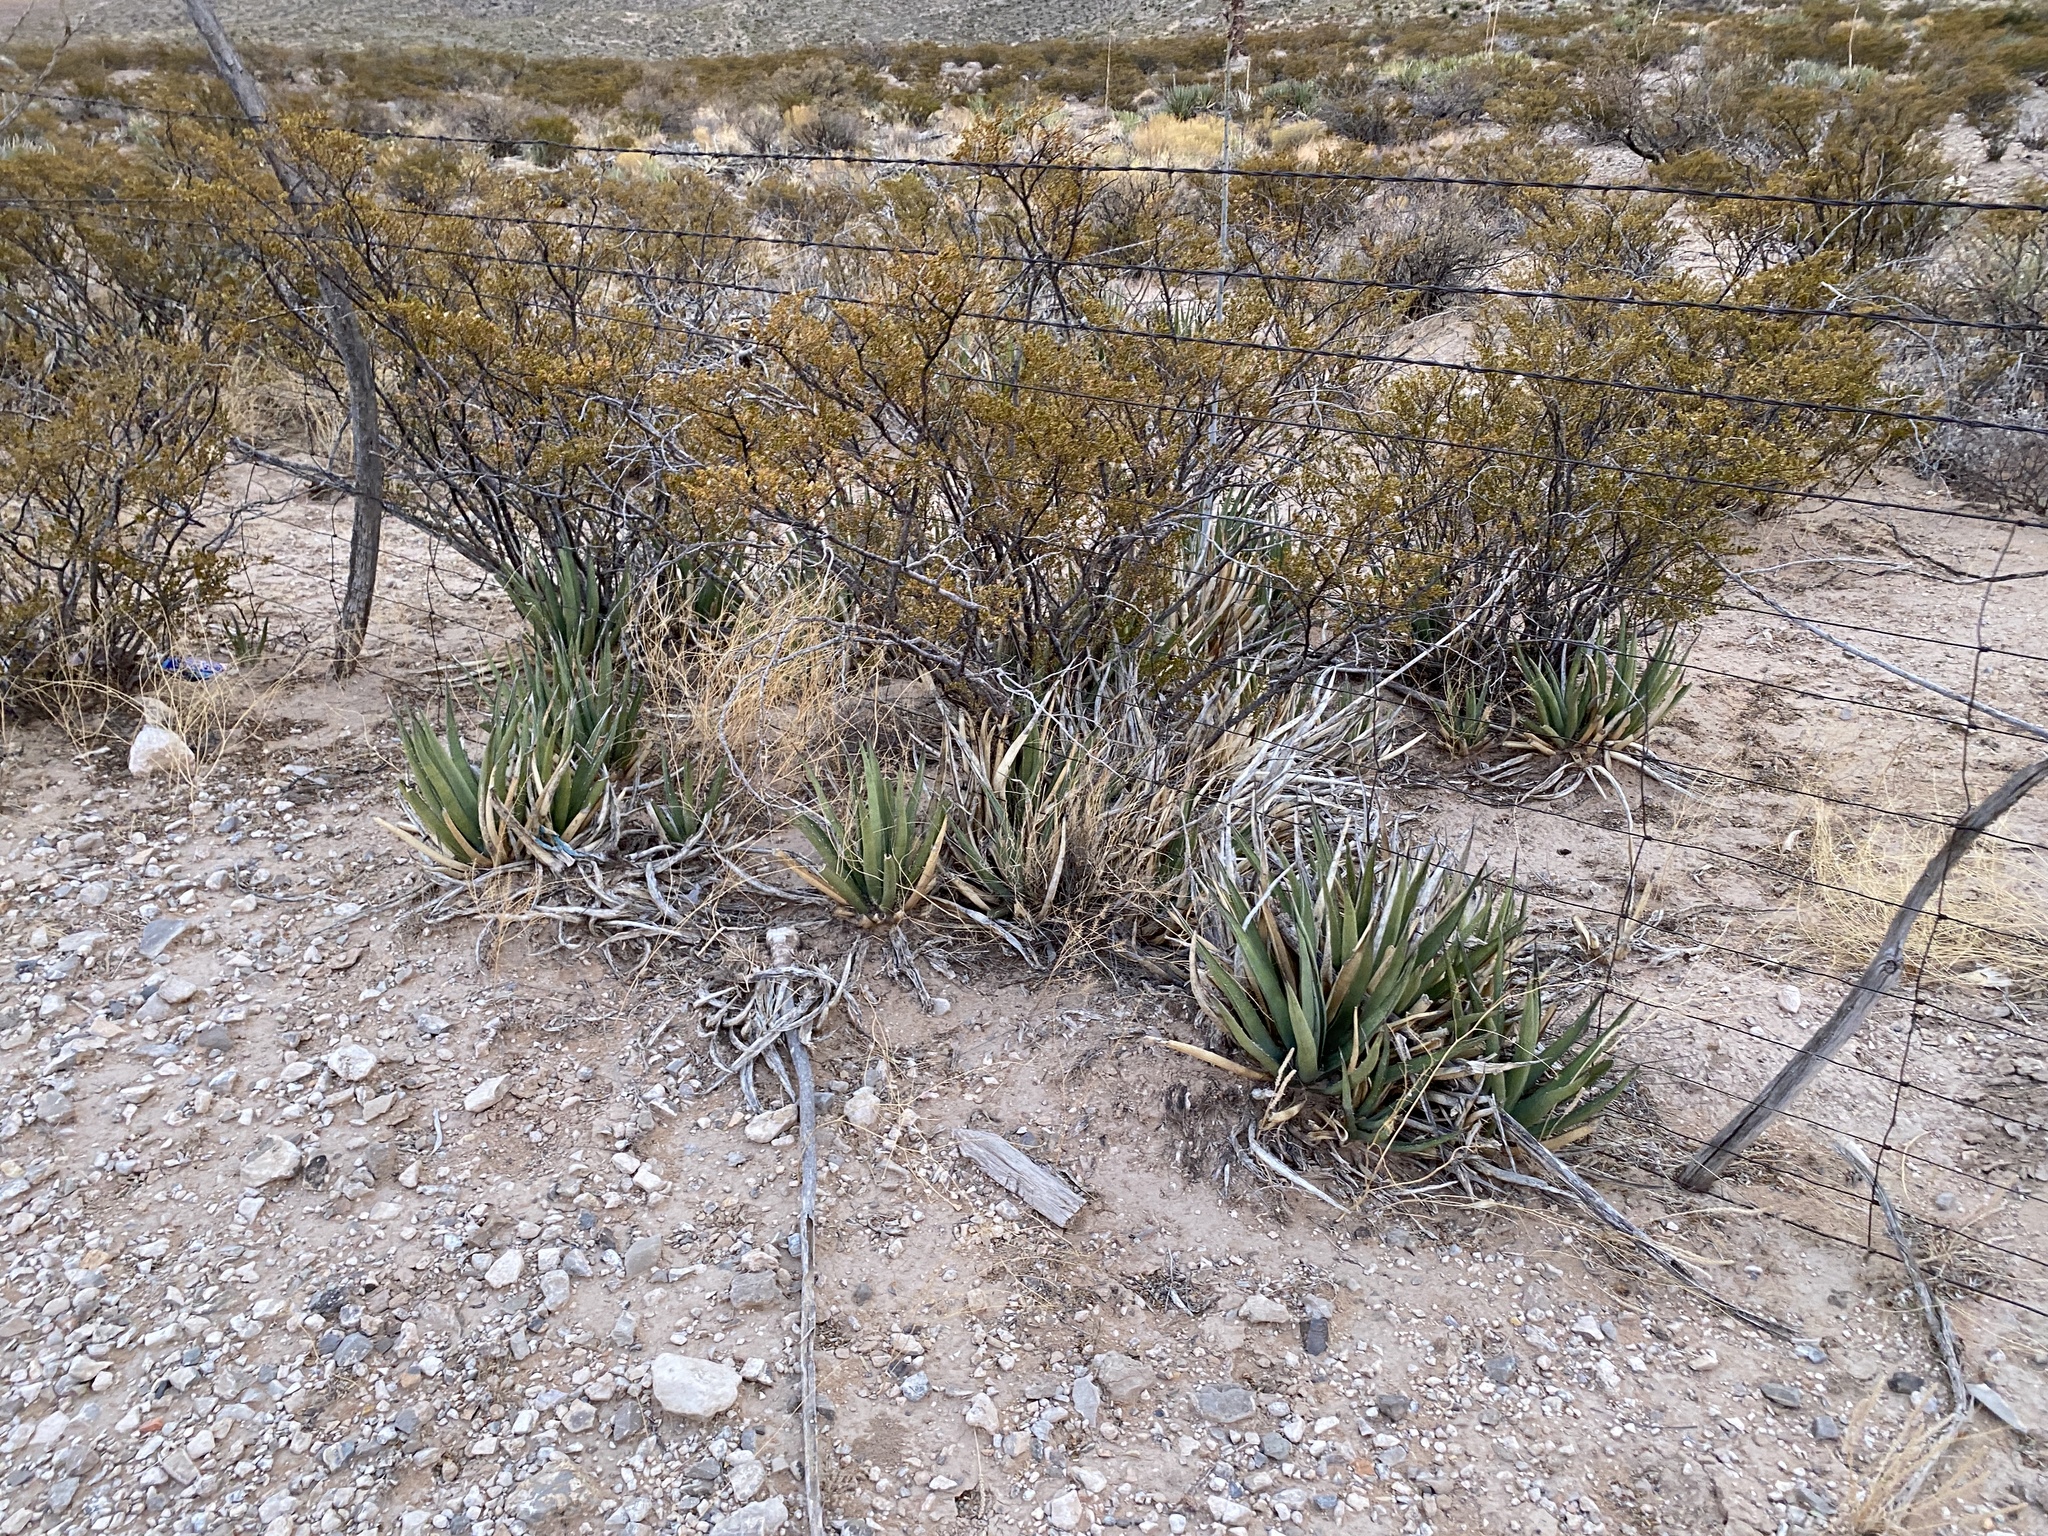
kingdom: Plantae
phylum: Tracheophyta
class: Liliopsida
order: Asparagales
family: Asparagaceae
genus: Agave
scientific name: Agave lechuguilla
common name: Lecheguilla agave
